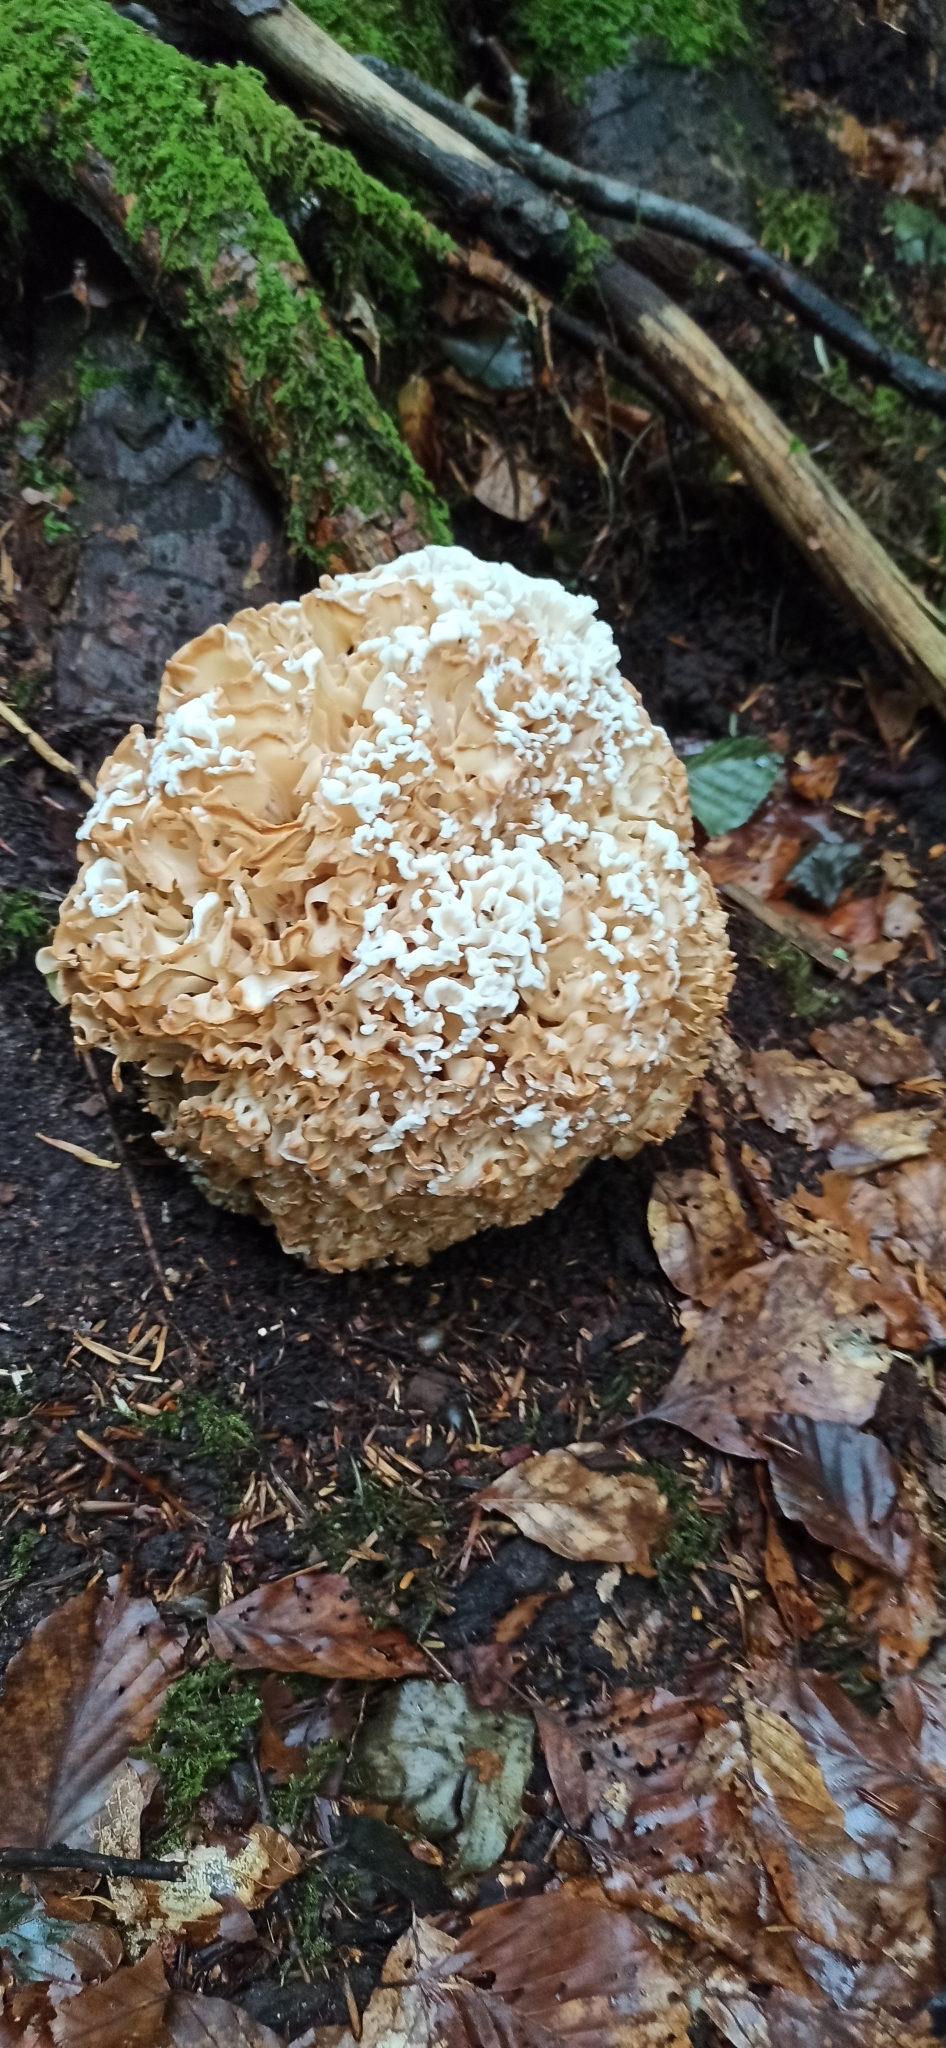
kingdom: Fungi
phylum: Basidiomycota
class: Agaricomycetes
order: Polyporales
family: Sparassidaceae
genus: Sparassis
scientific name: Sparassis crispa
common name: Brain fungus
